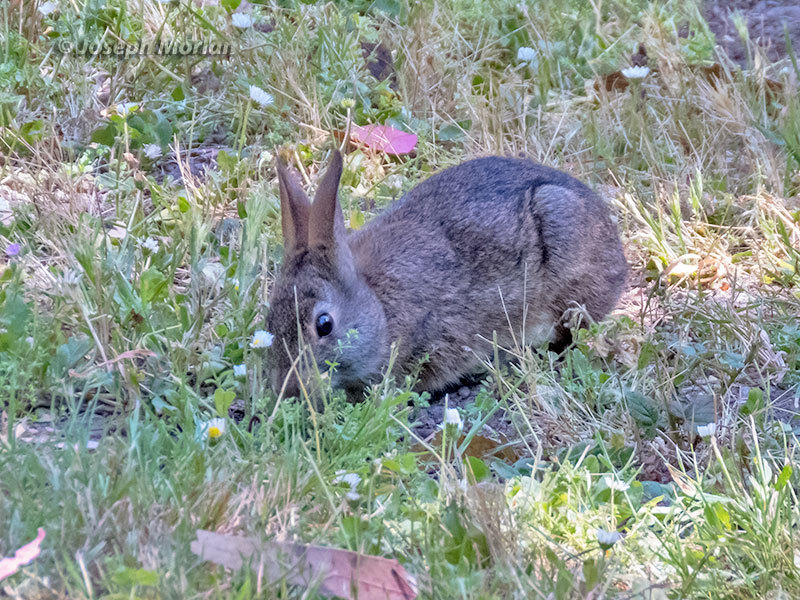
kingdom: Animalia
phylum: Chordata
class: Mammalia
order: Lagomorpha
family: Leporidae
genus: Sylvilagus
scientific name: Sylvilagus bachmani
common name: Brush rabbit
